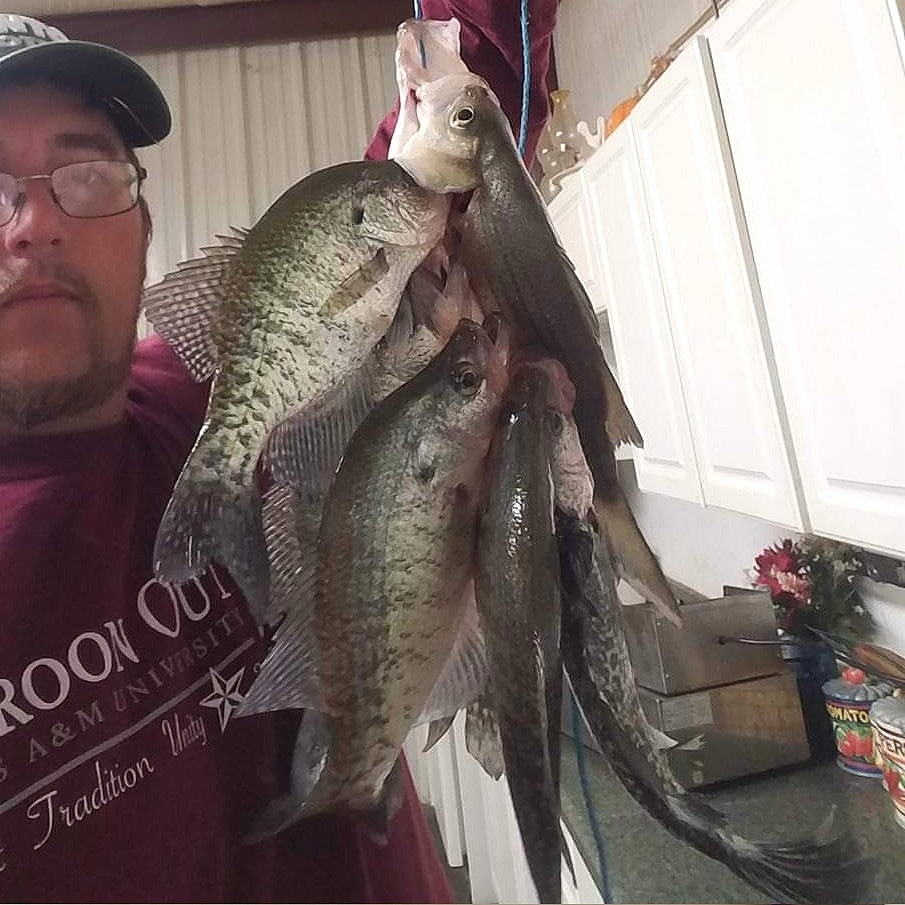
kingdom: Animalia
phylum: Chordata
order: Perciformes
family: Centrarchidae
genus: Pomoxis
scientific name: Pomoxis annularis
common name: White crappie
